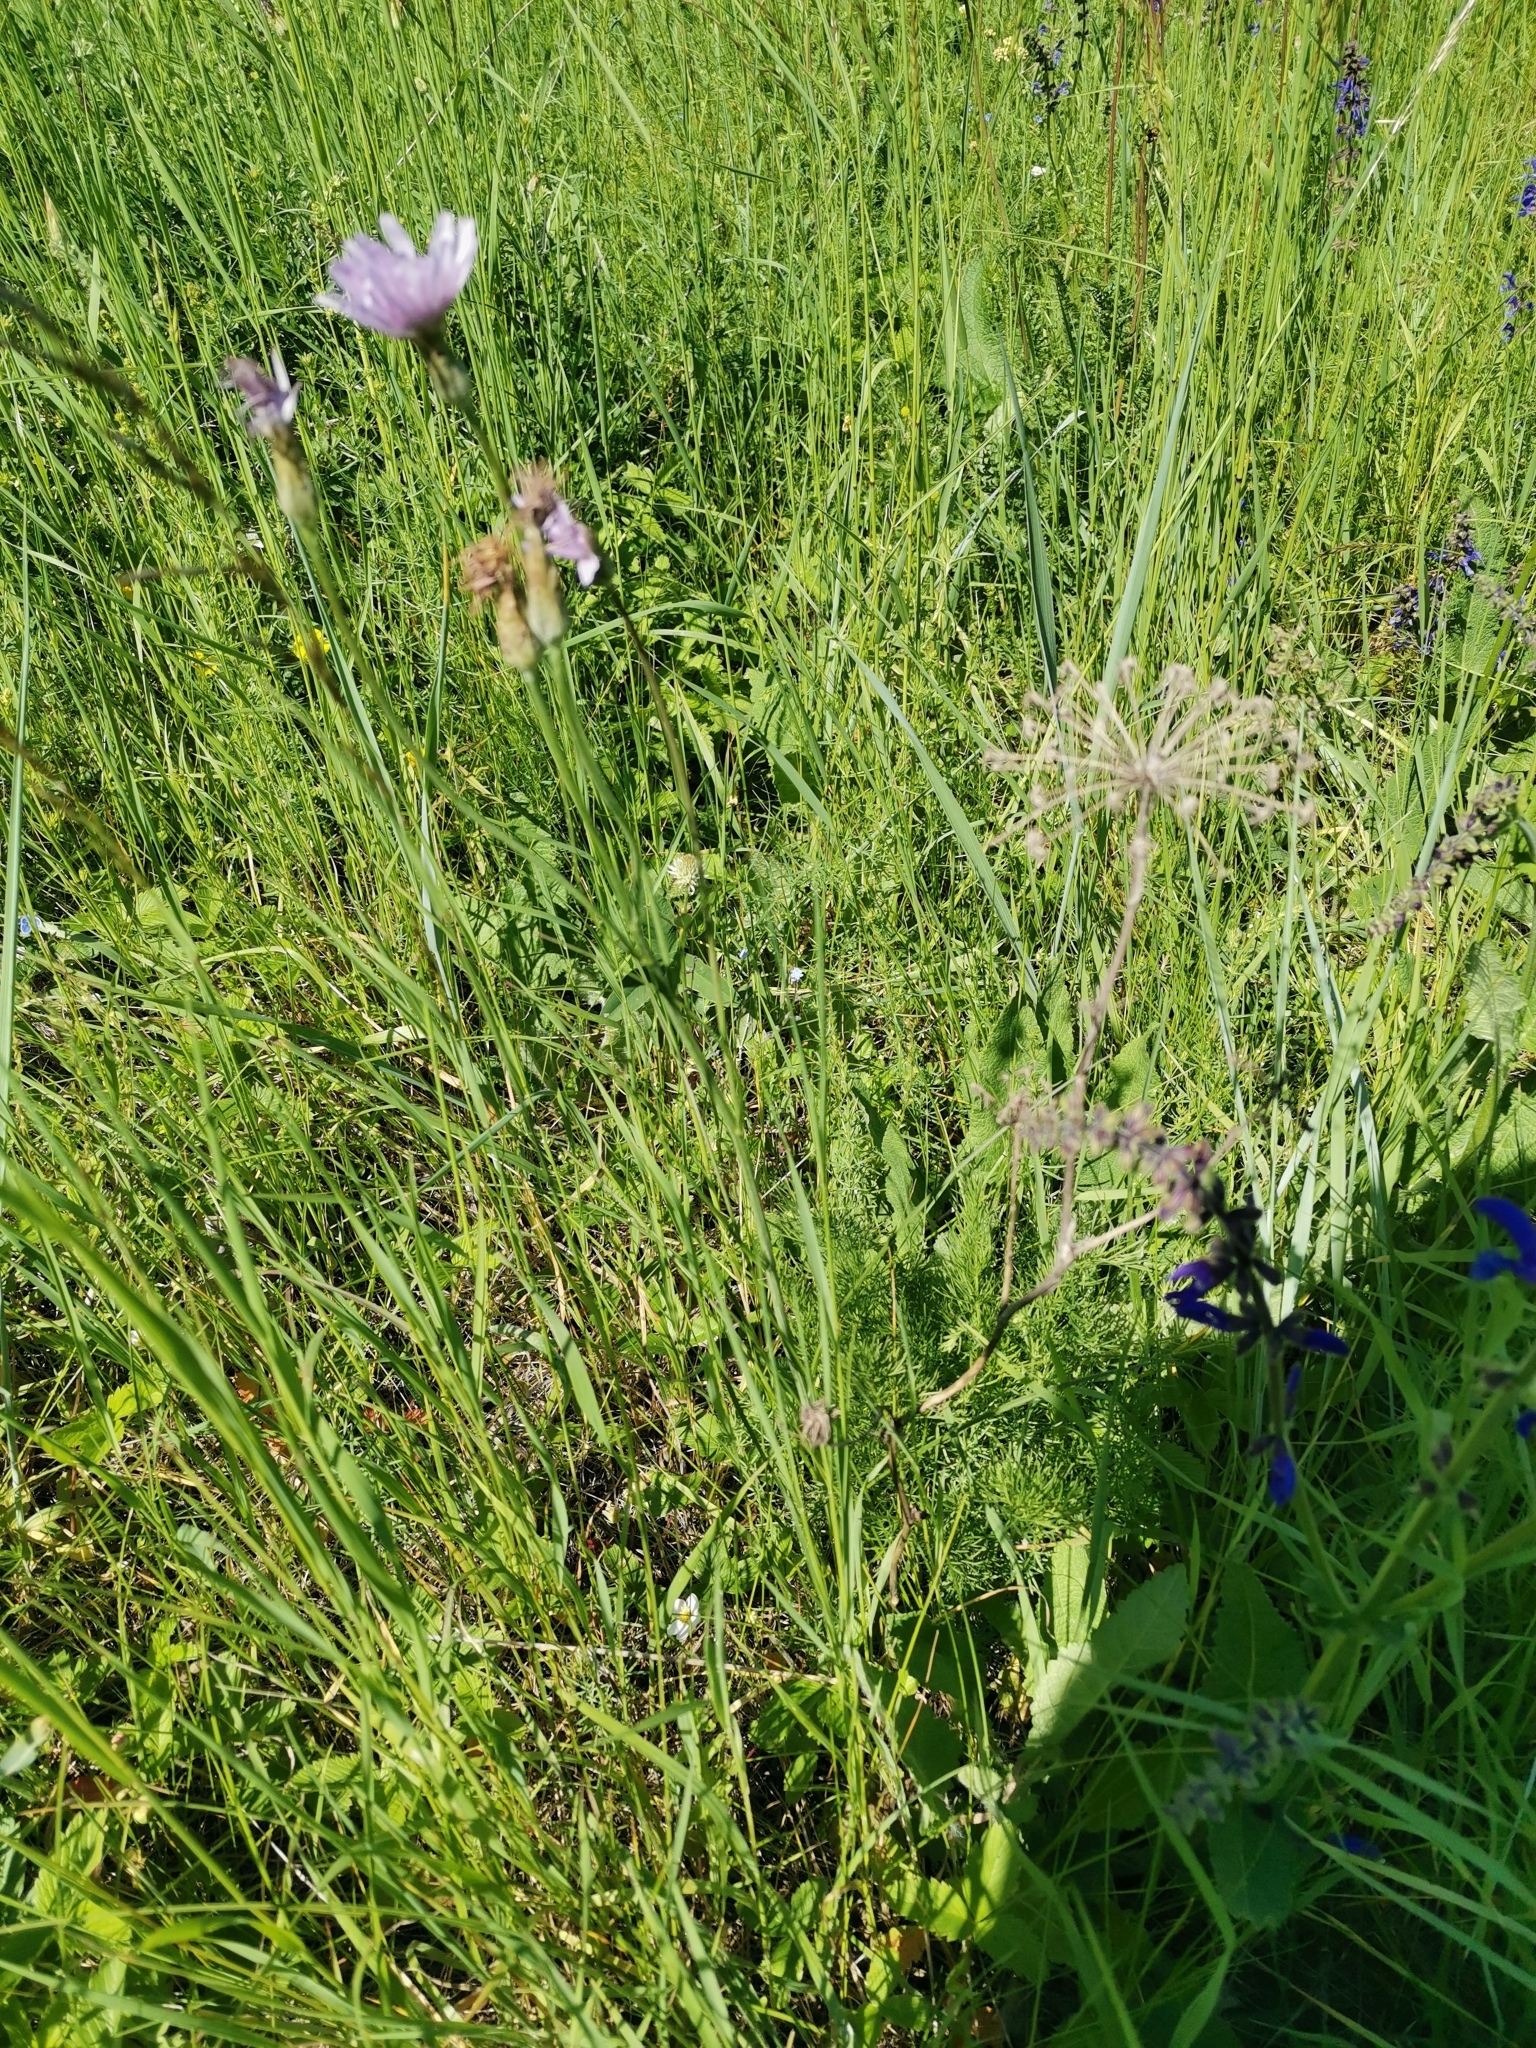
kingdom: Plantae
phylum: Tracheophyta
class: Magnoliopsida
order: Asterales
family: Asteraceae
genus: Scorzonera
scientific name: Scorzonera purpurea
